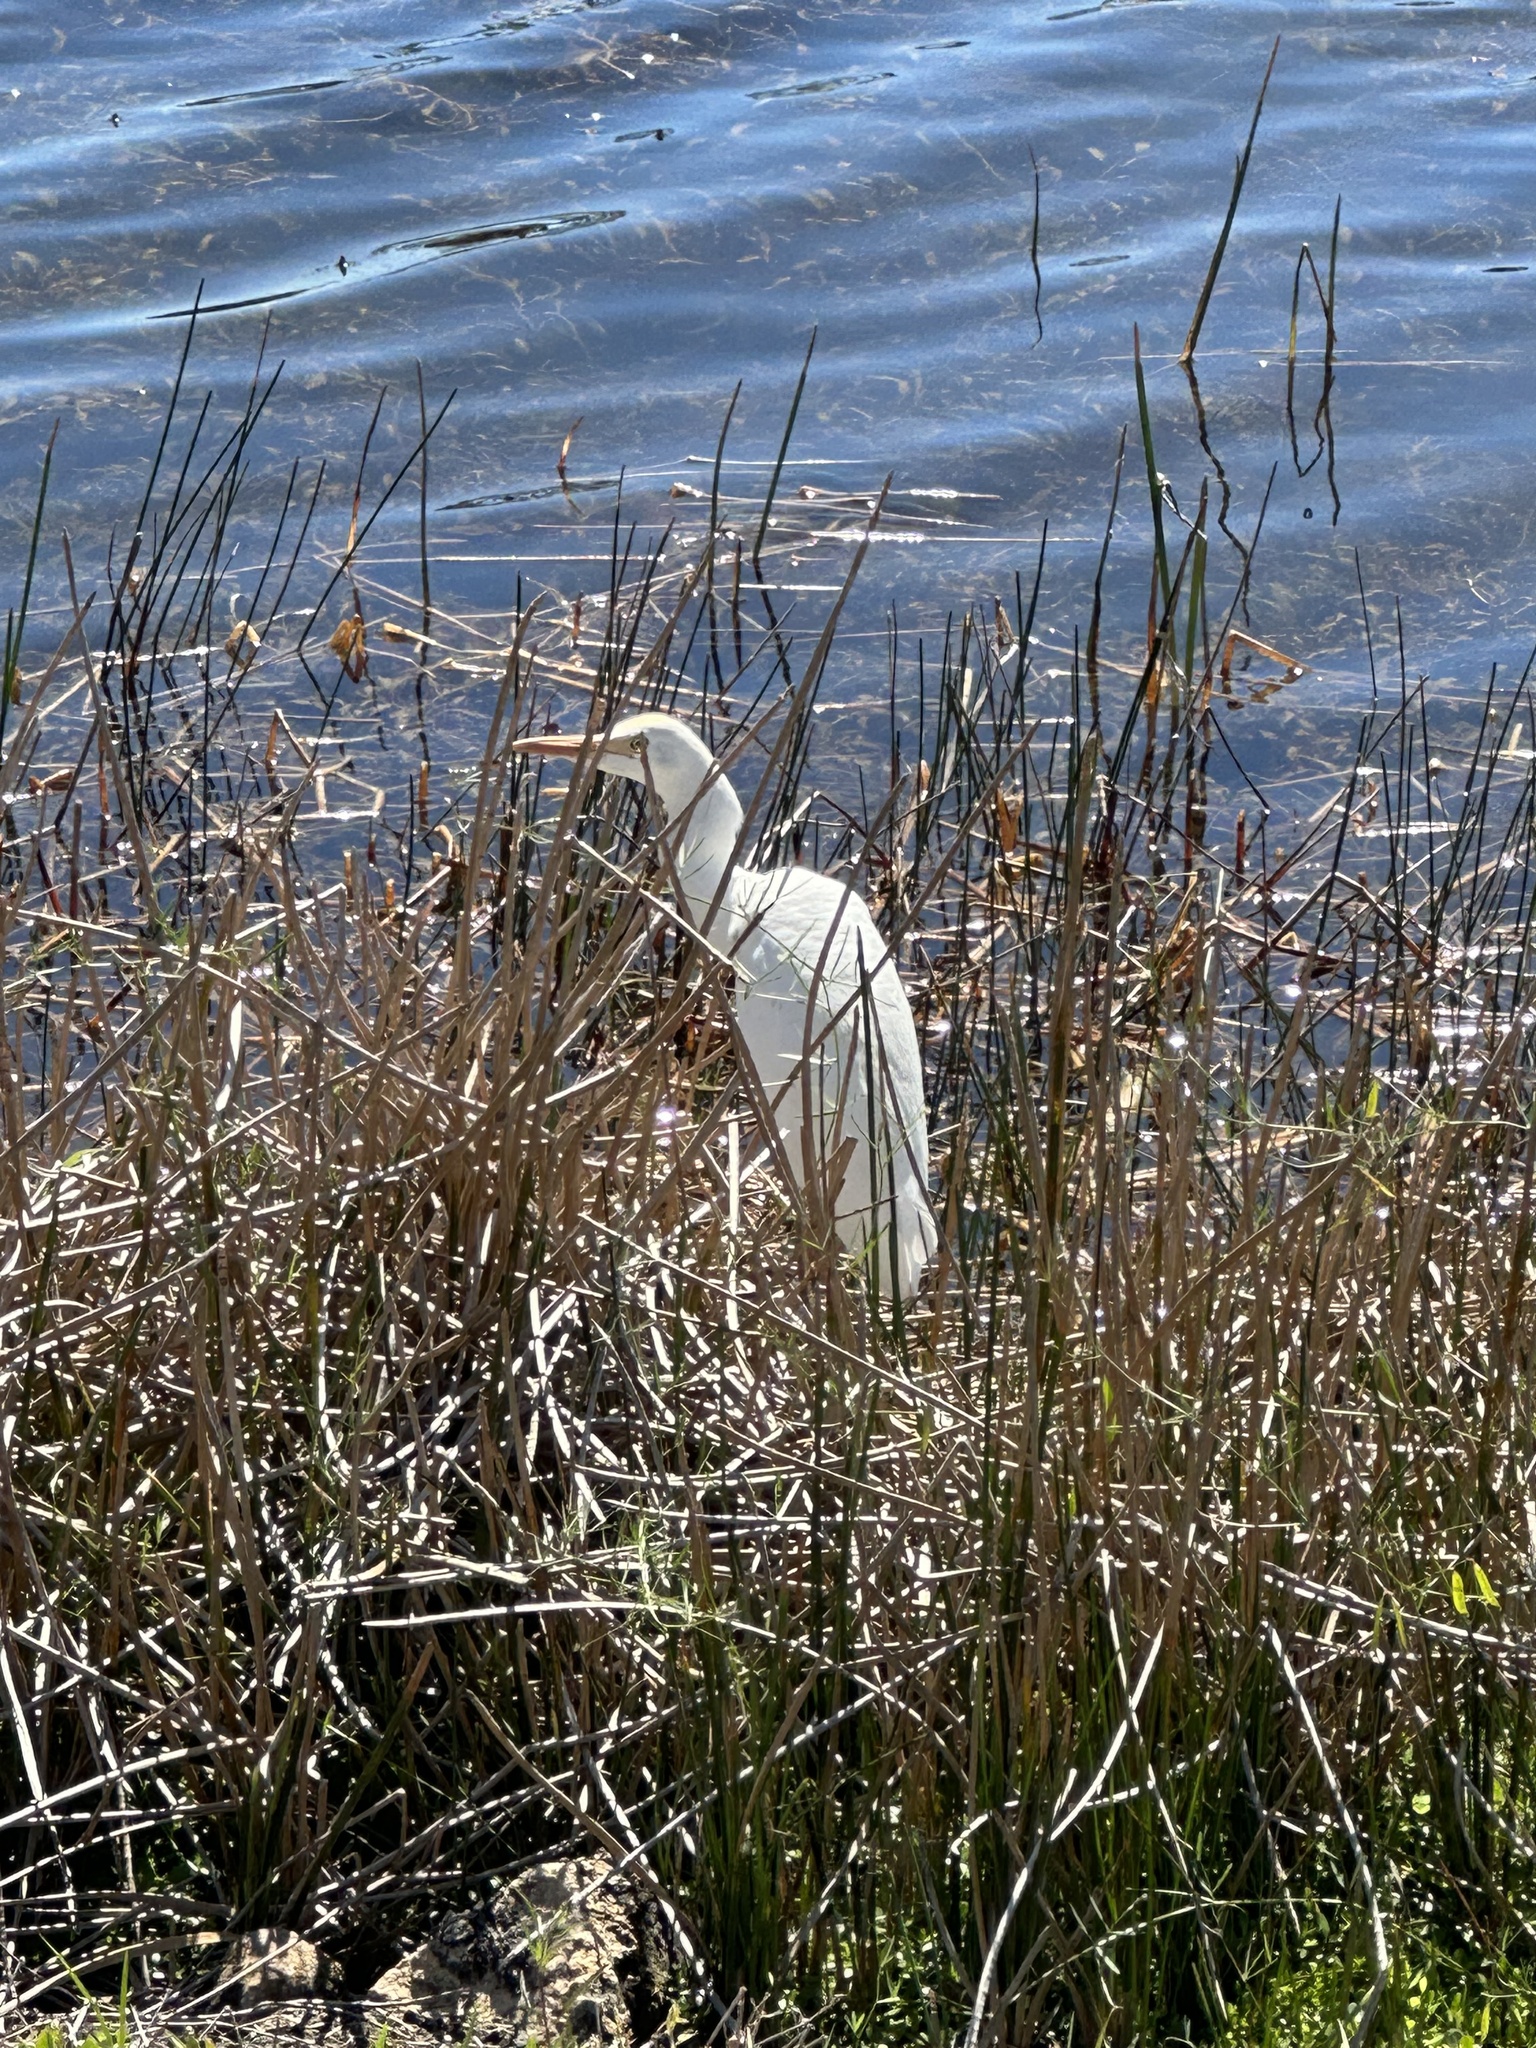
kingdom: Animalia
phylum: Chordata
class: Aves
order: Pelecaniformes
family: Ardeidae
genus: Bubulcus
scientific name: Bubulcus ibis
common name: Cattle egret
